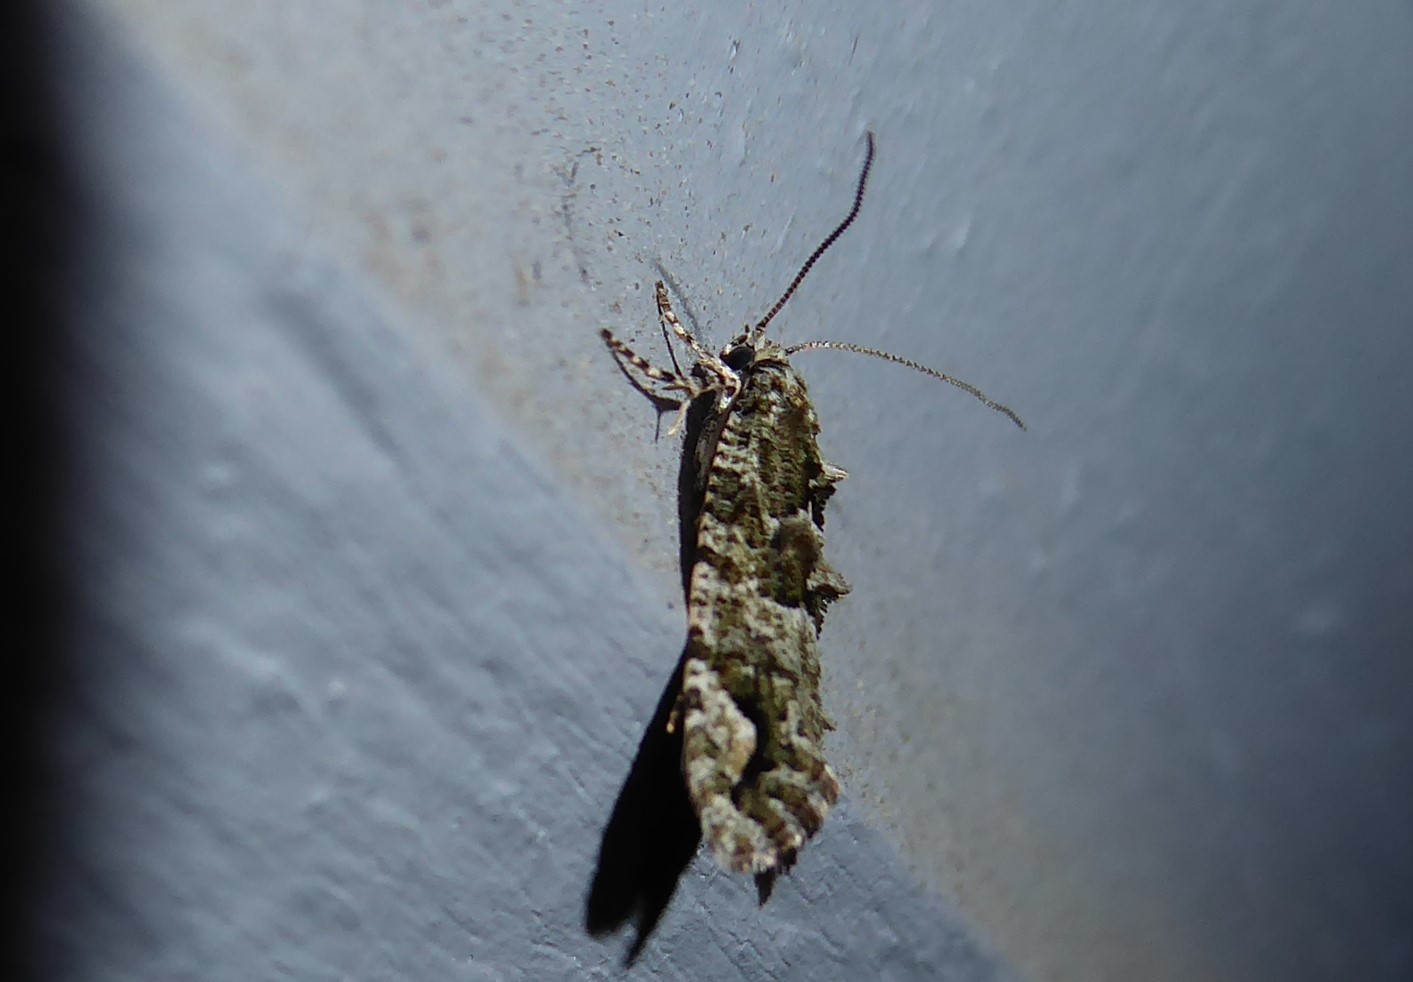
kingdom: Animalia
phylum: Arthropoda
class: Insecta
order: Lepidoptera
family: Tineidae
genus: Lysiphragma
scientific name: Lysiphragma howesii
